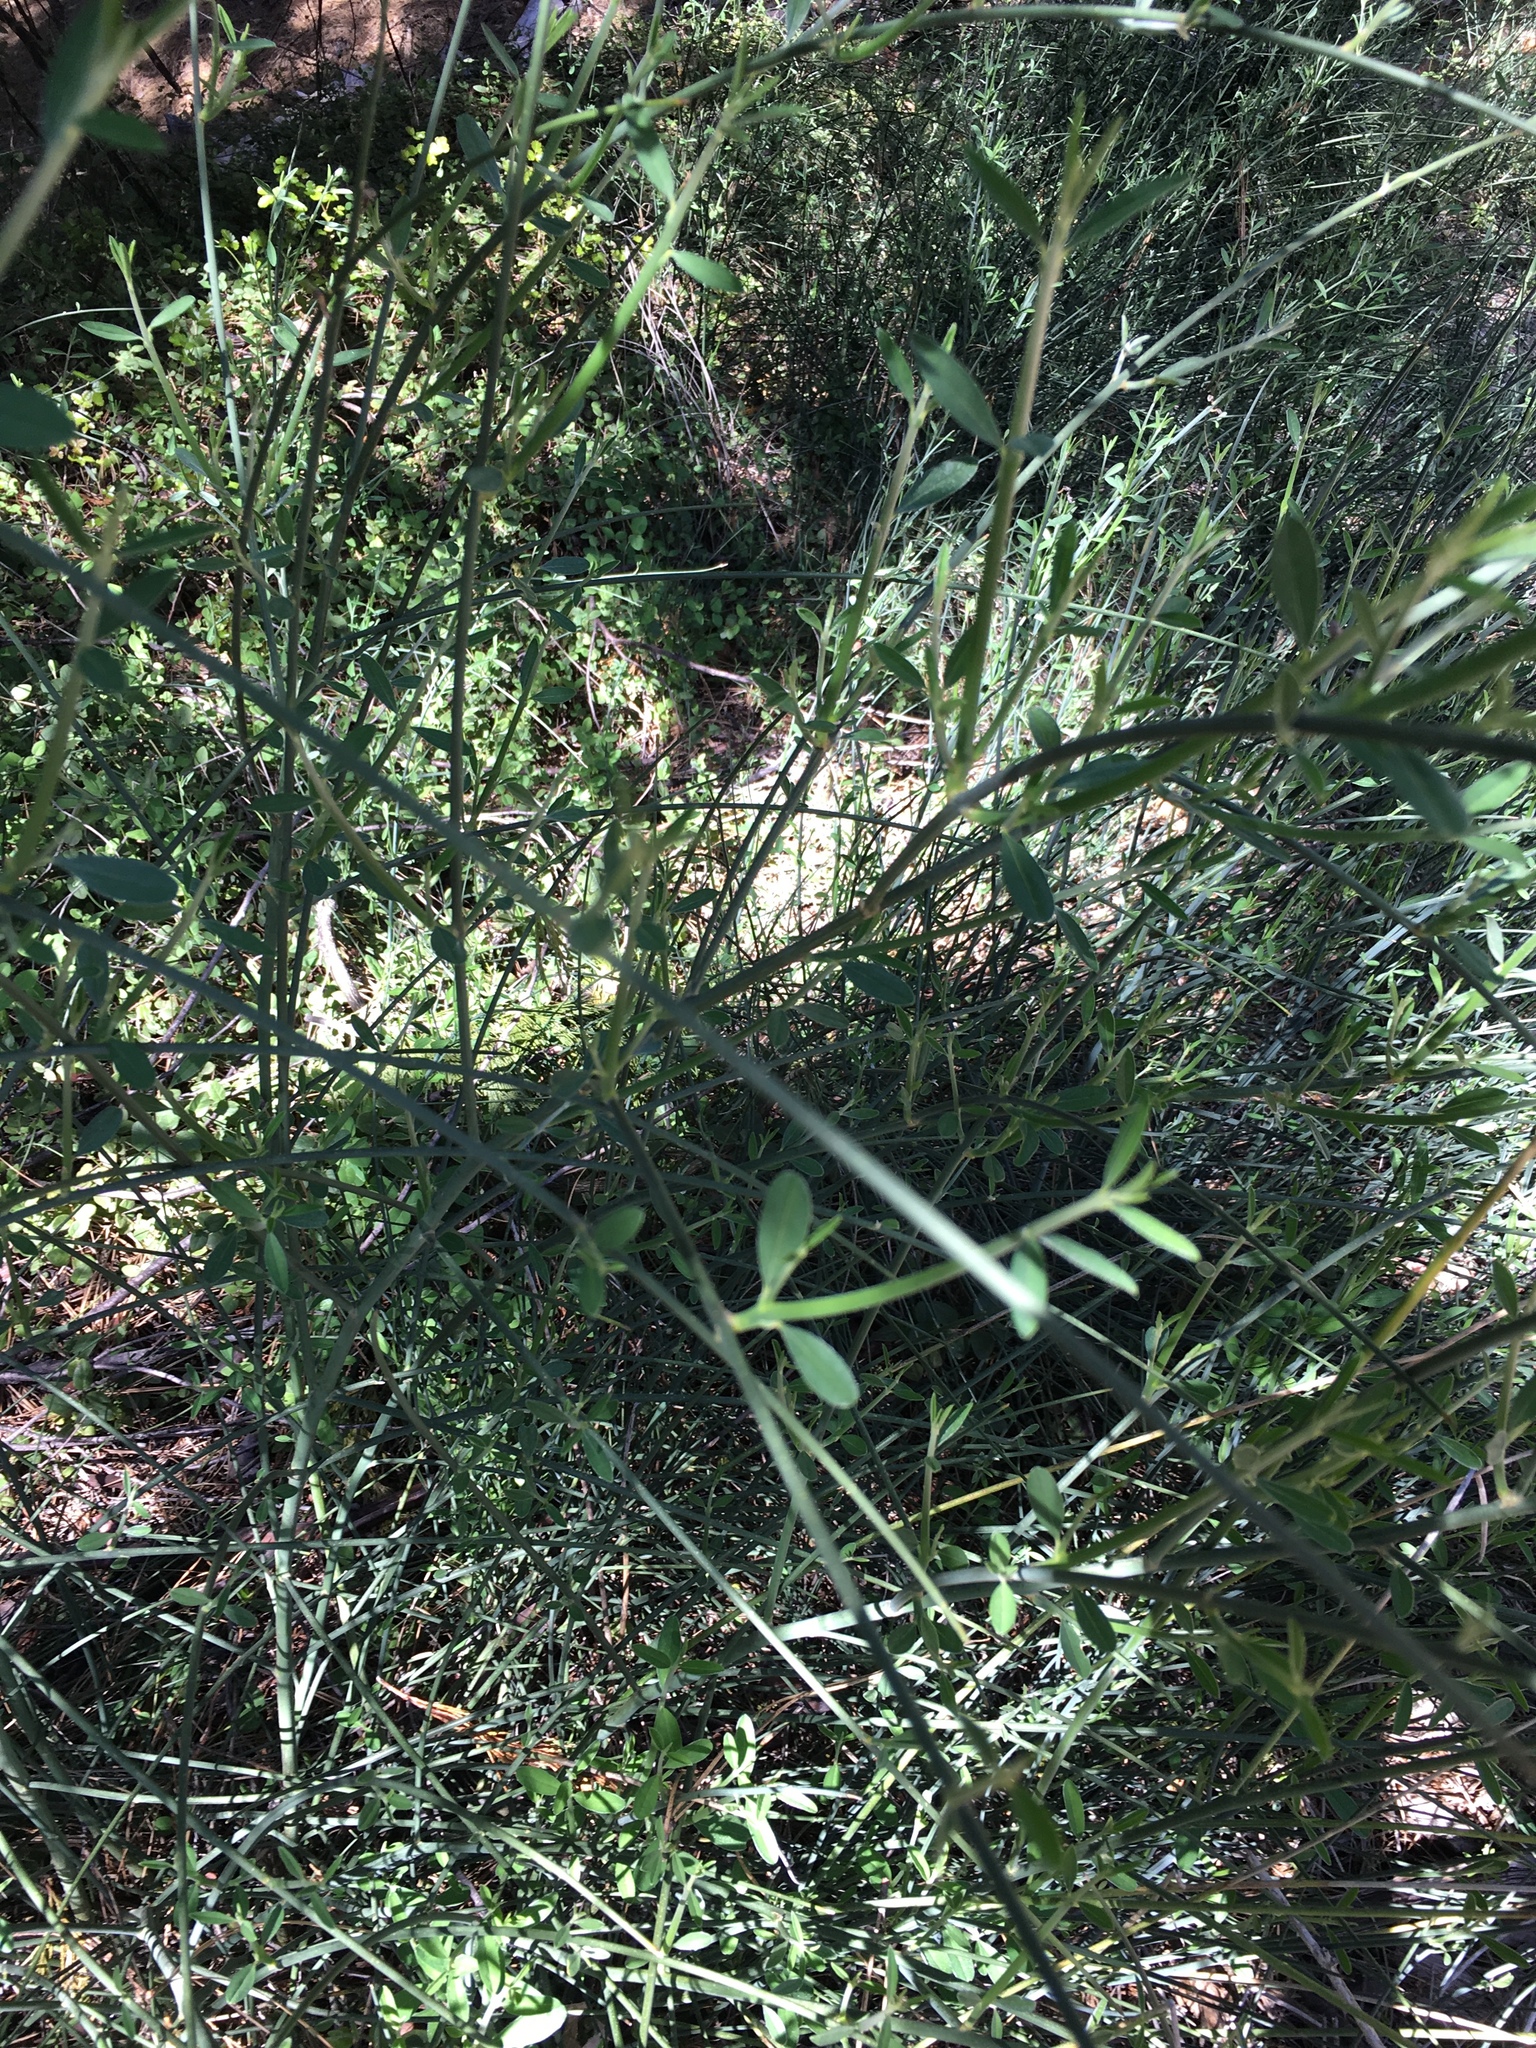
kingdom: Plantae
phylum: Tracheophyta
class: Magnoliopsida
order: Fabales
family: Fabaceae
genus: Spartium
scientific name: Spartium junceum
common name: Spanish broom
